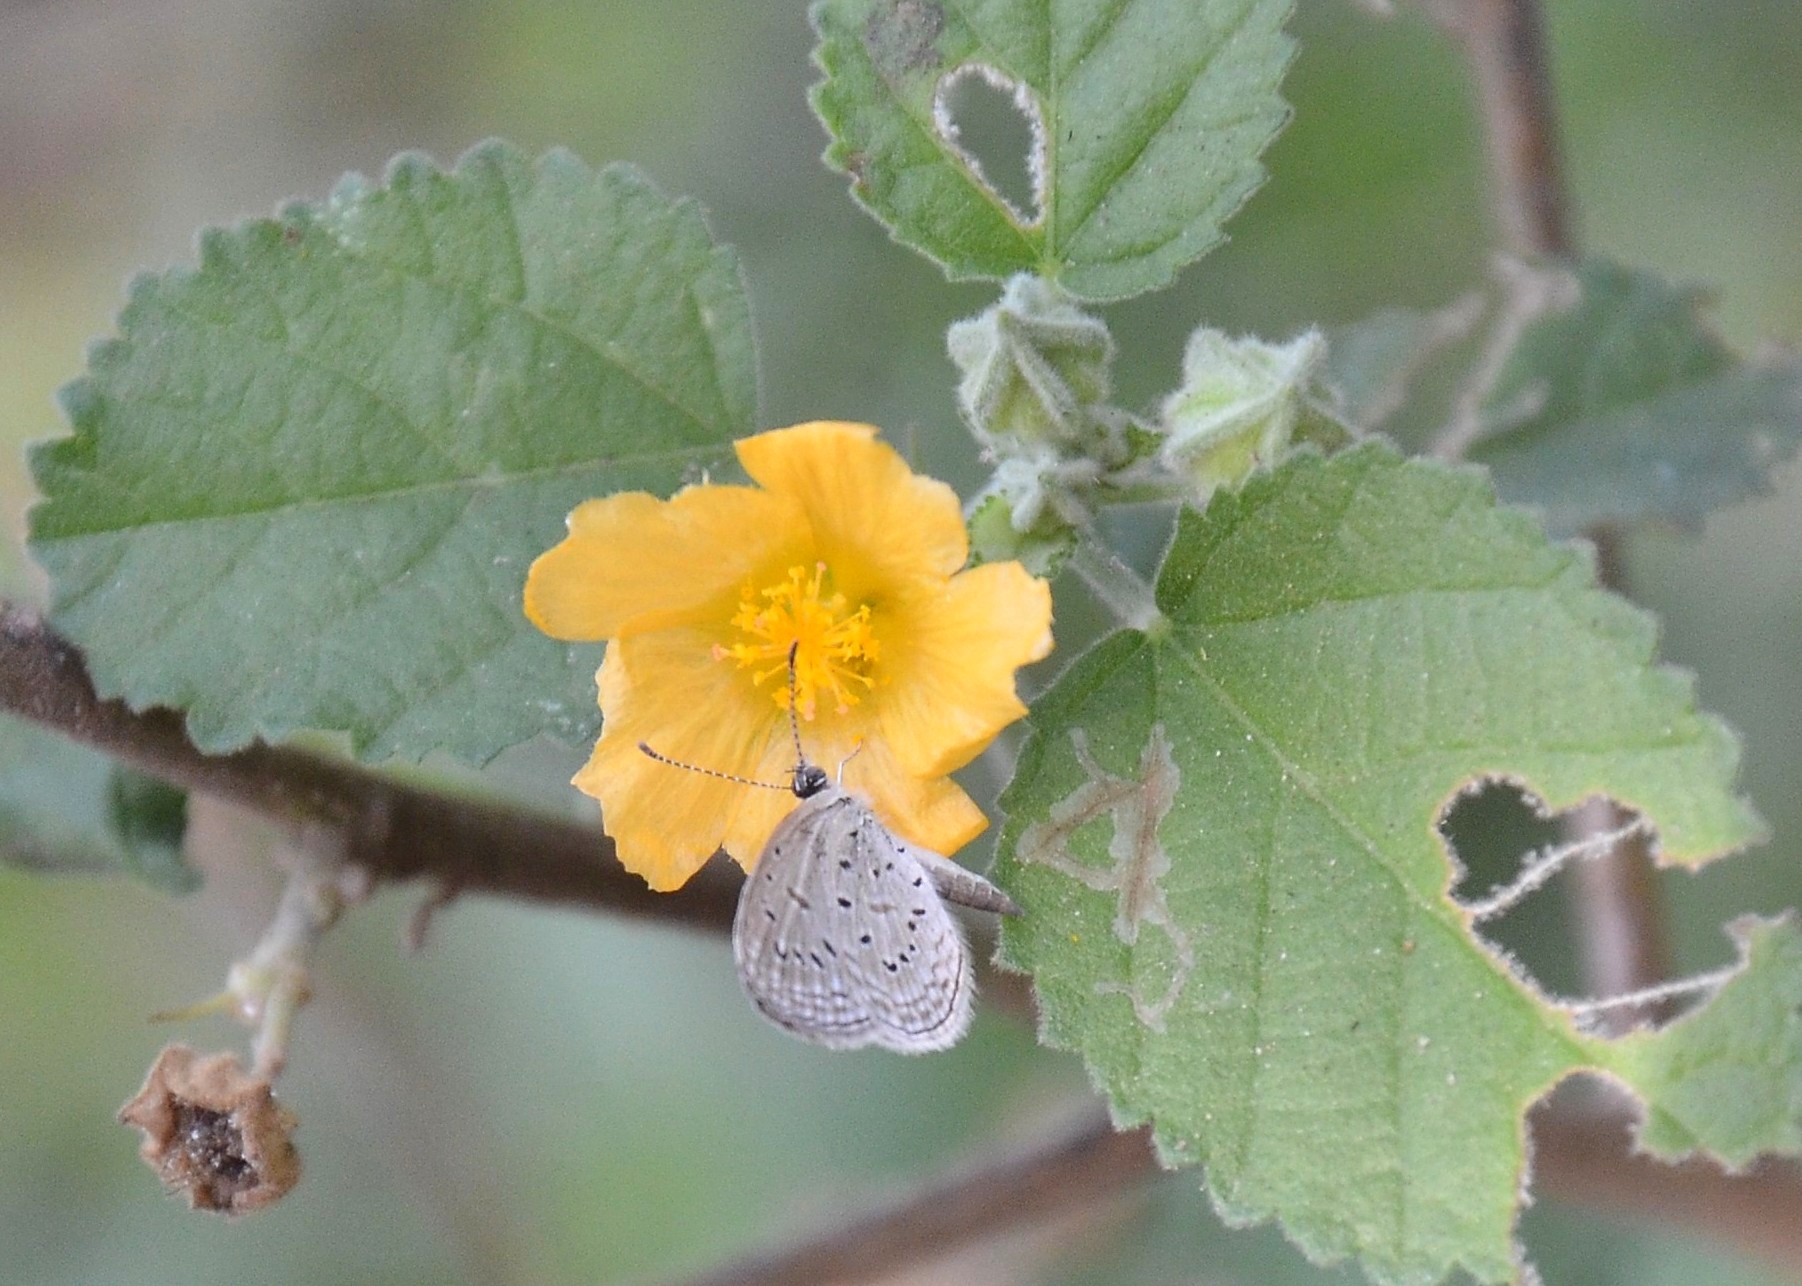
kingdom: Animalia
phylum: Arthropoda
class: Insecta
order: Lepidoptera
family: Lycaenidae
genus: Zizula
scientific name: Zizula hylax
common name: Gaika blue
